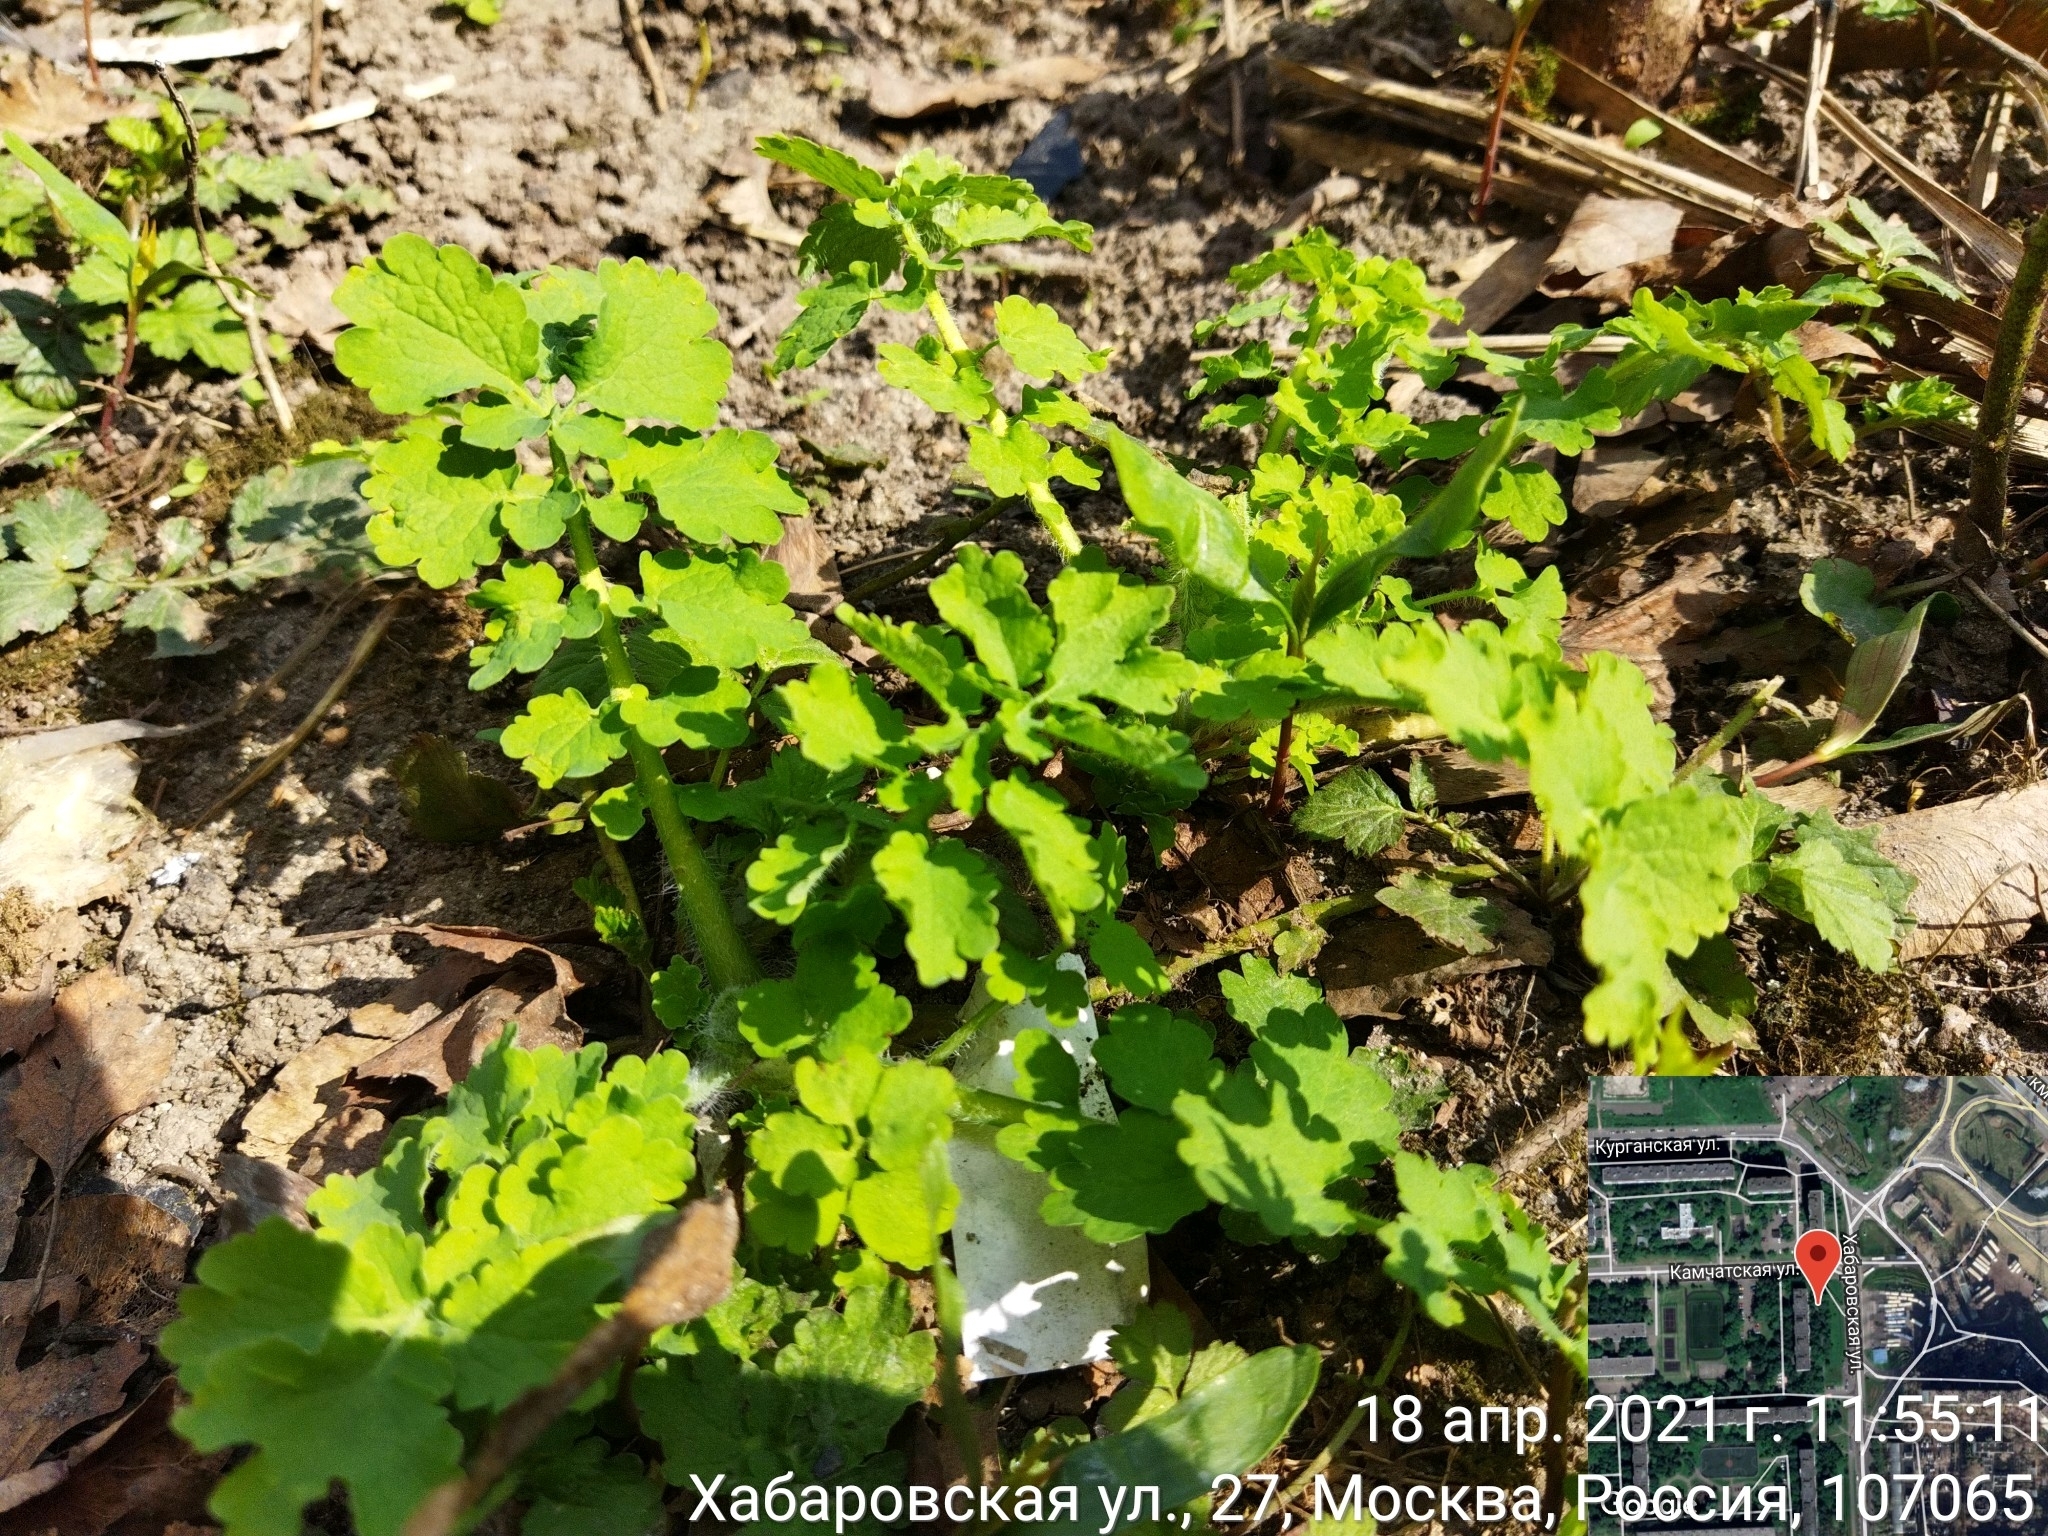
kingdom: Plantae
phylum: Tracheophyta
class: Magnoliopsida
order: Ranunculales
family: Papaveraceae
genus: Chelidonium
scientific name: Chelidonium majus
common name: Greater celandine
